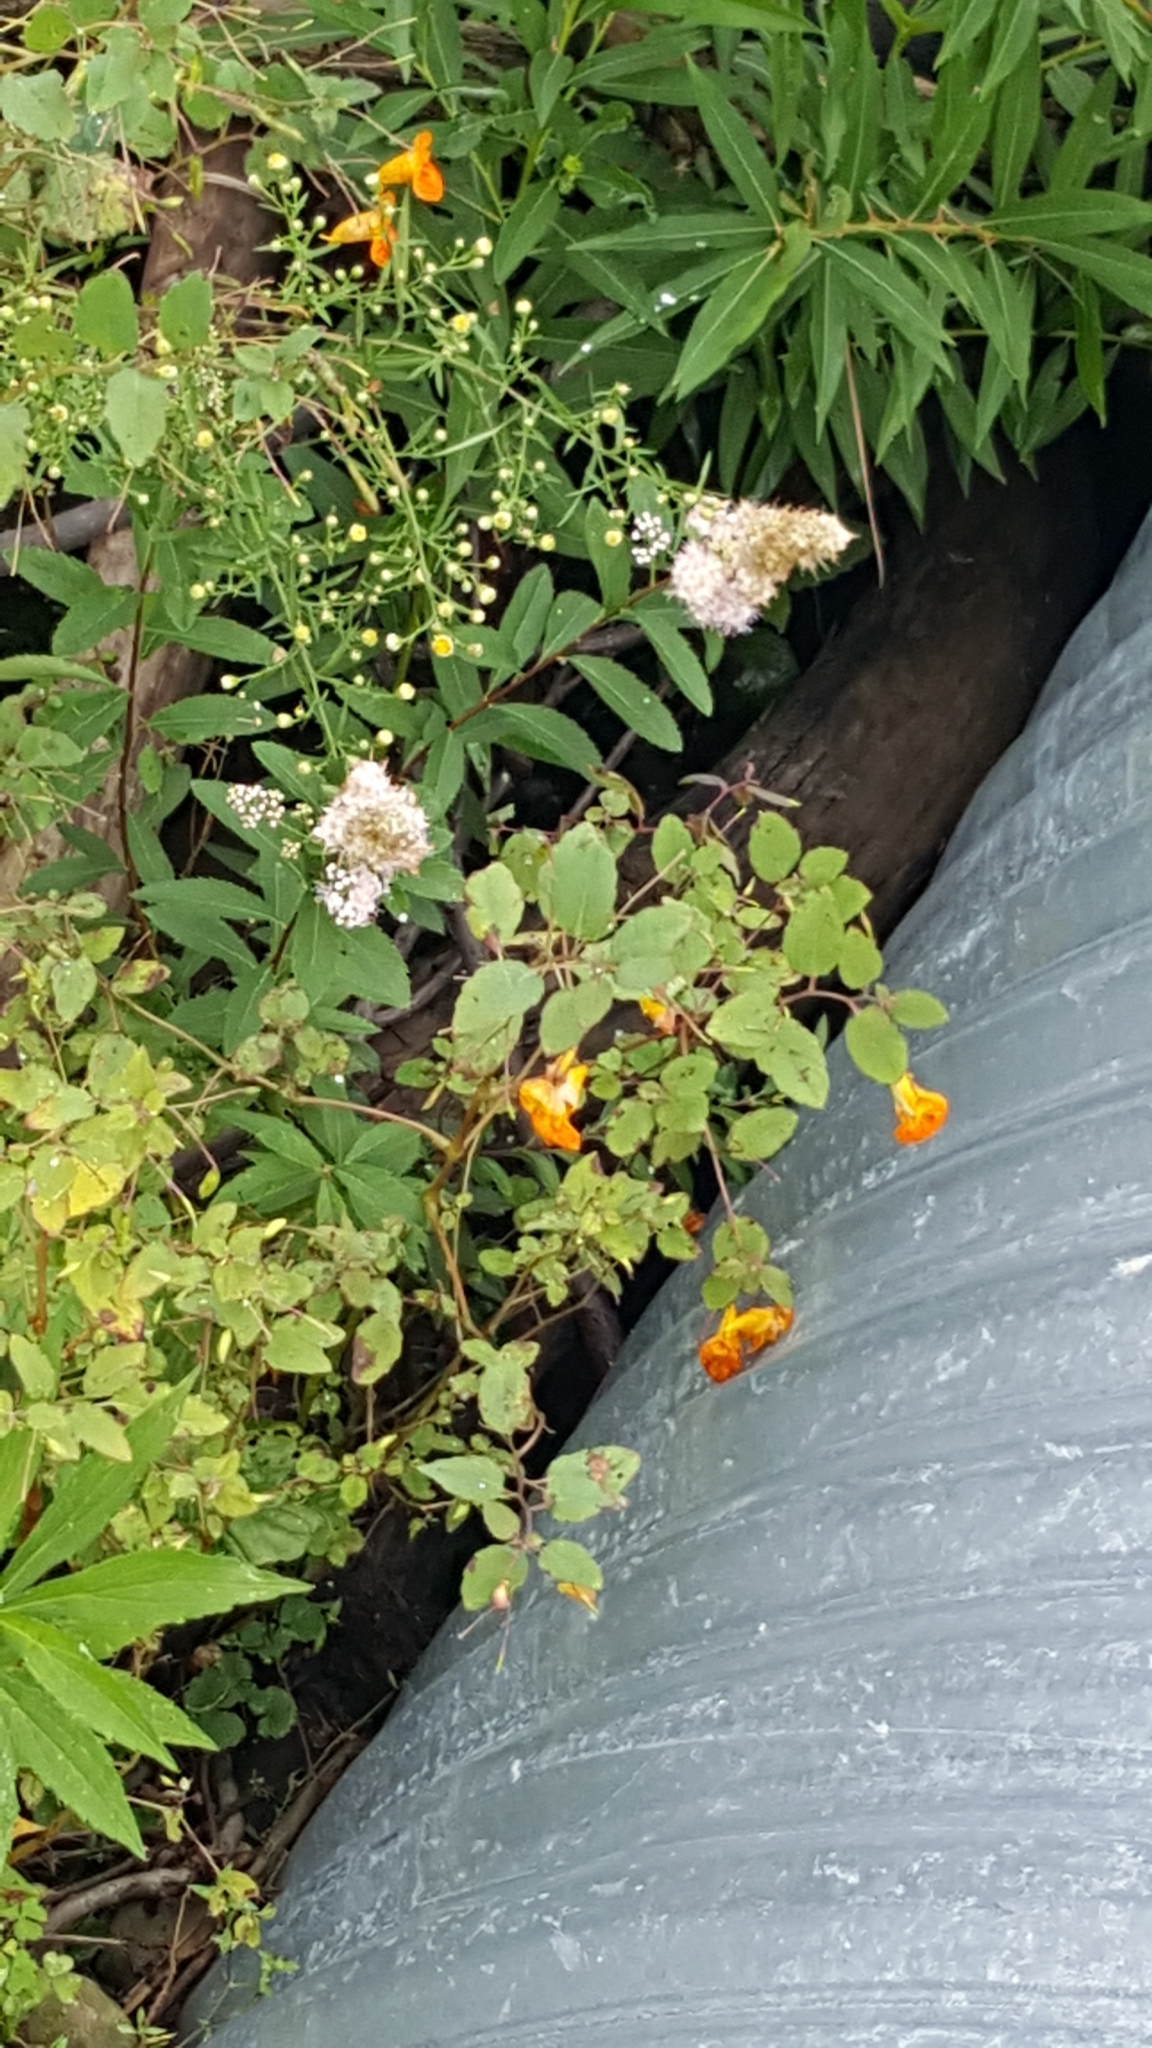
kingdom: Plantae
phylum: Tracheophyta
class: Magnoliopsida
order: Ericales
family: Balsaminaceae
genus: Impatiens
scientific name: Impatiens capensis
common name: Orange balsam
